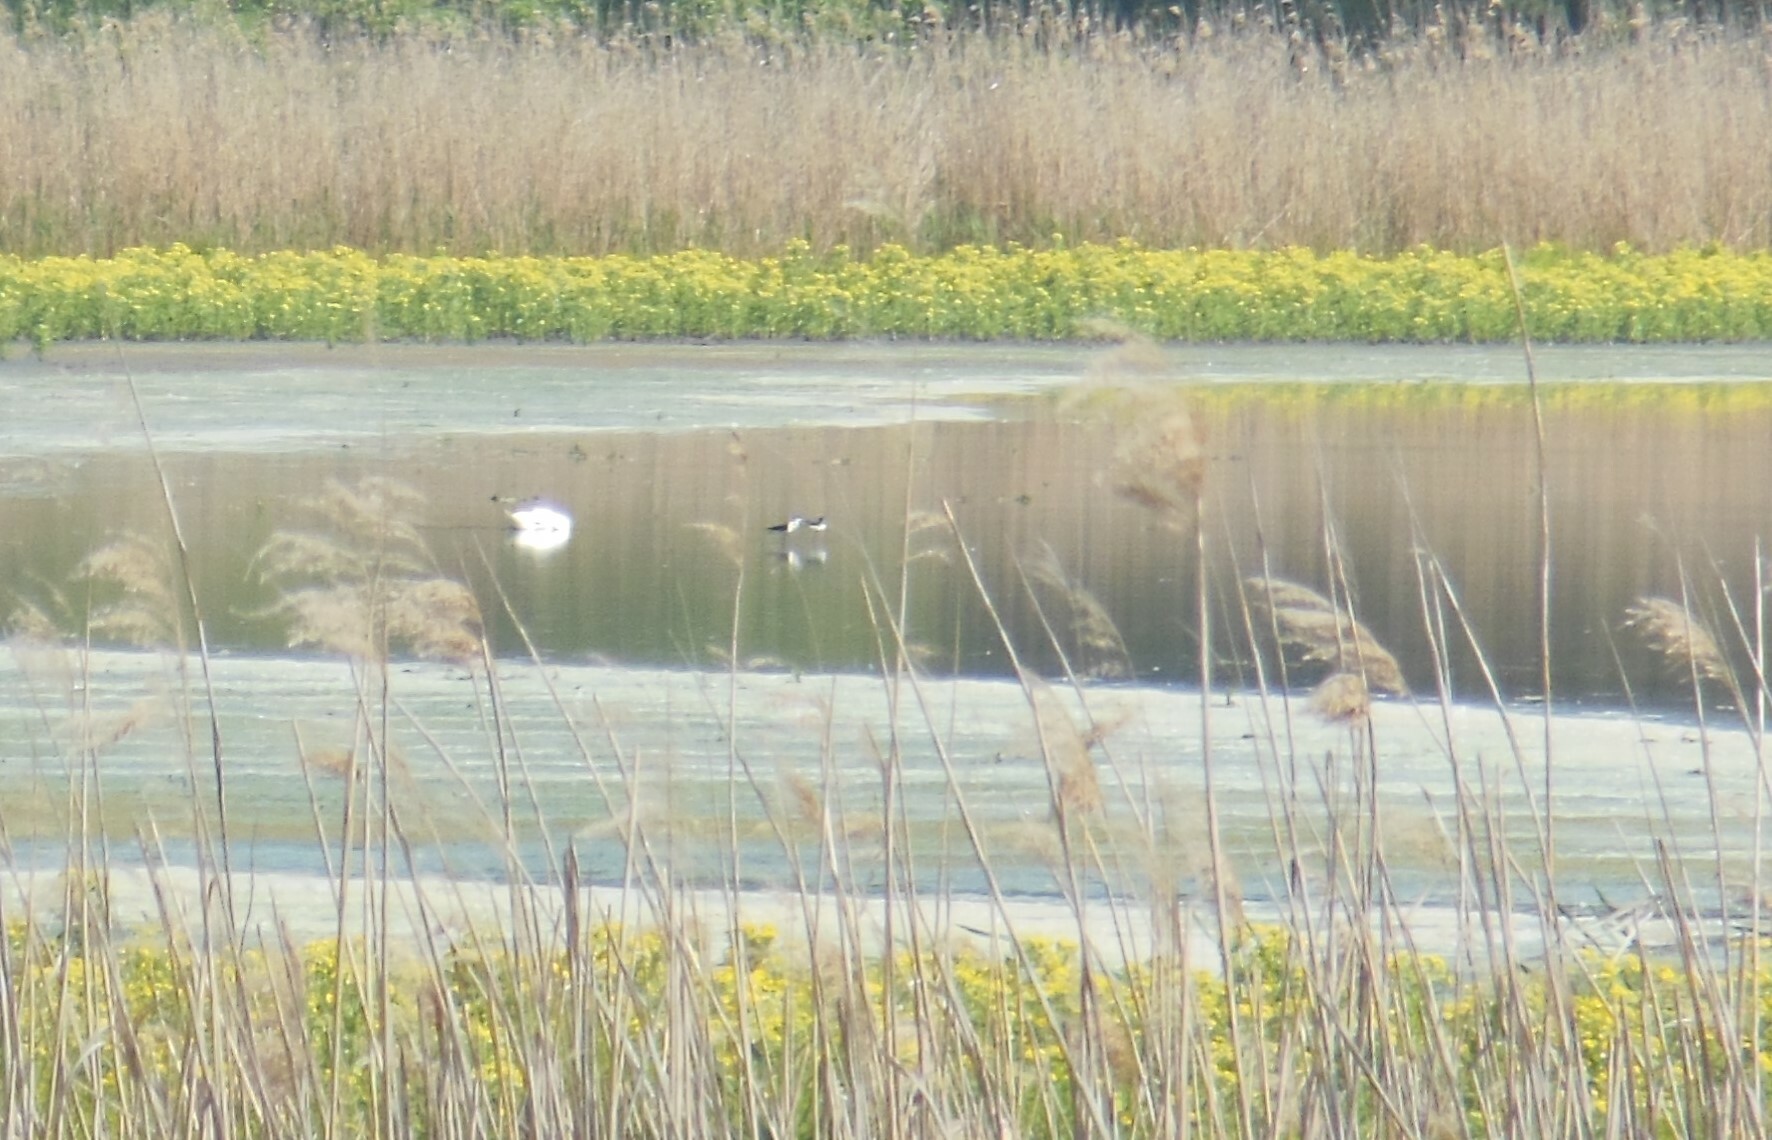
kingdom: Animalia
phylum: Chordata
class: Aves
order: Charadriiformes
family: Recurvirostridae
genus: Himantopus
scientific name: Himantopus himantopus
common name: Black-winged stilt
